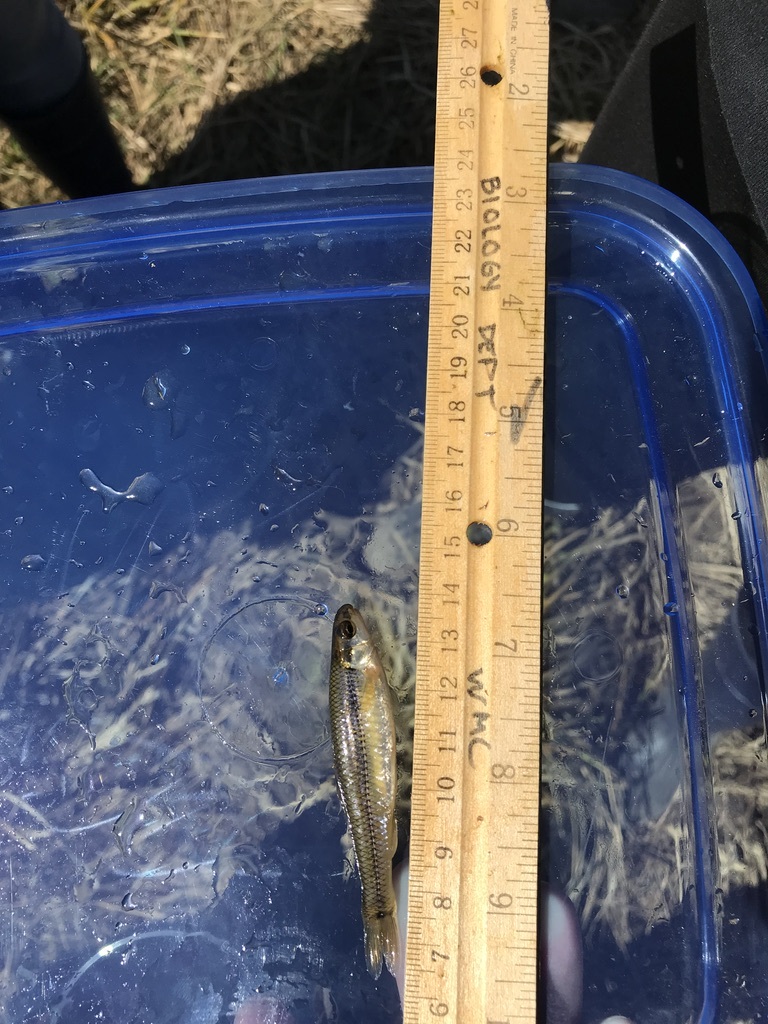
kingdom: Animalia
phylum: Chordata
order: Cypriniformes
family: Cyprinidae
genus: Pimephales
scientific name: Pimephales notatus
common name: Bluntnose minnow
